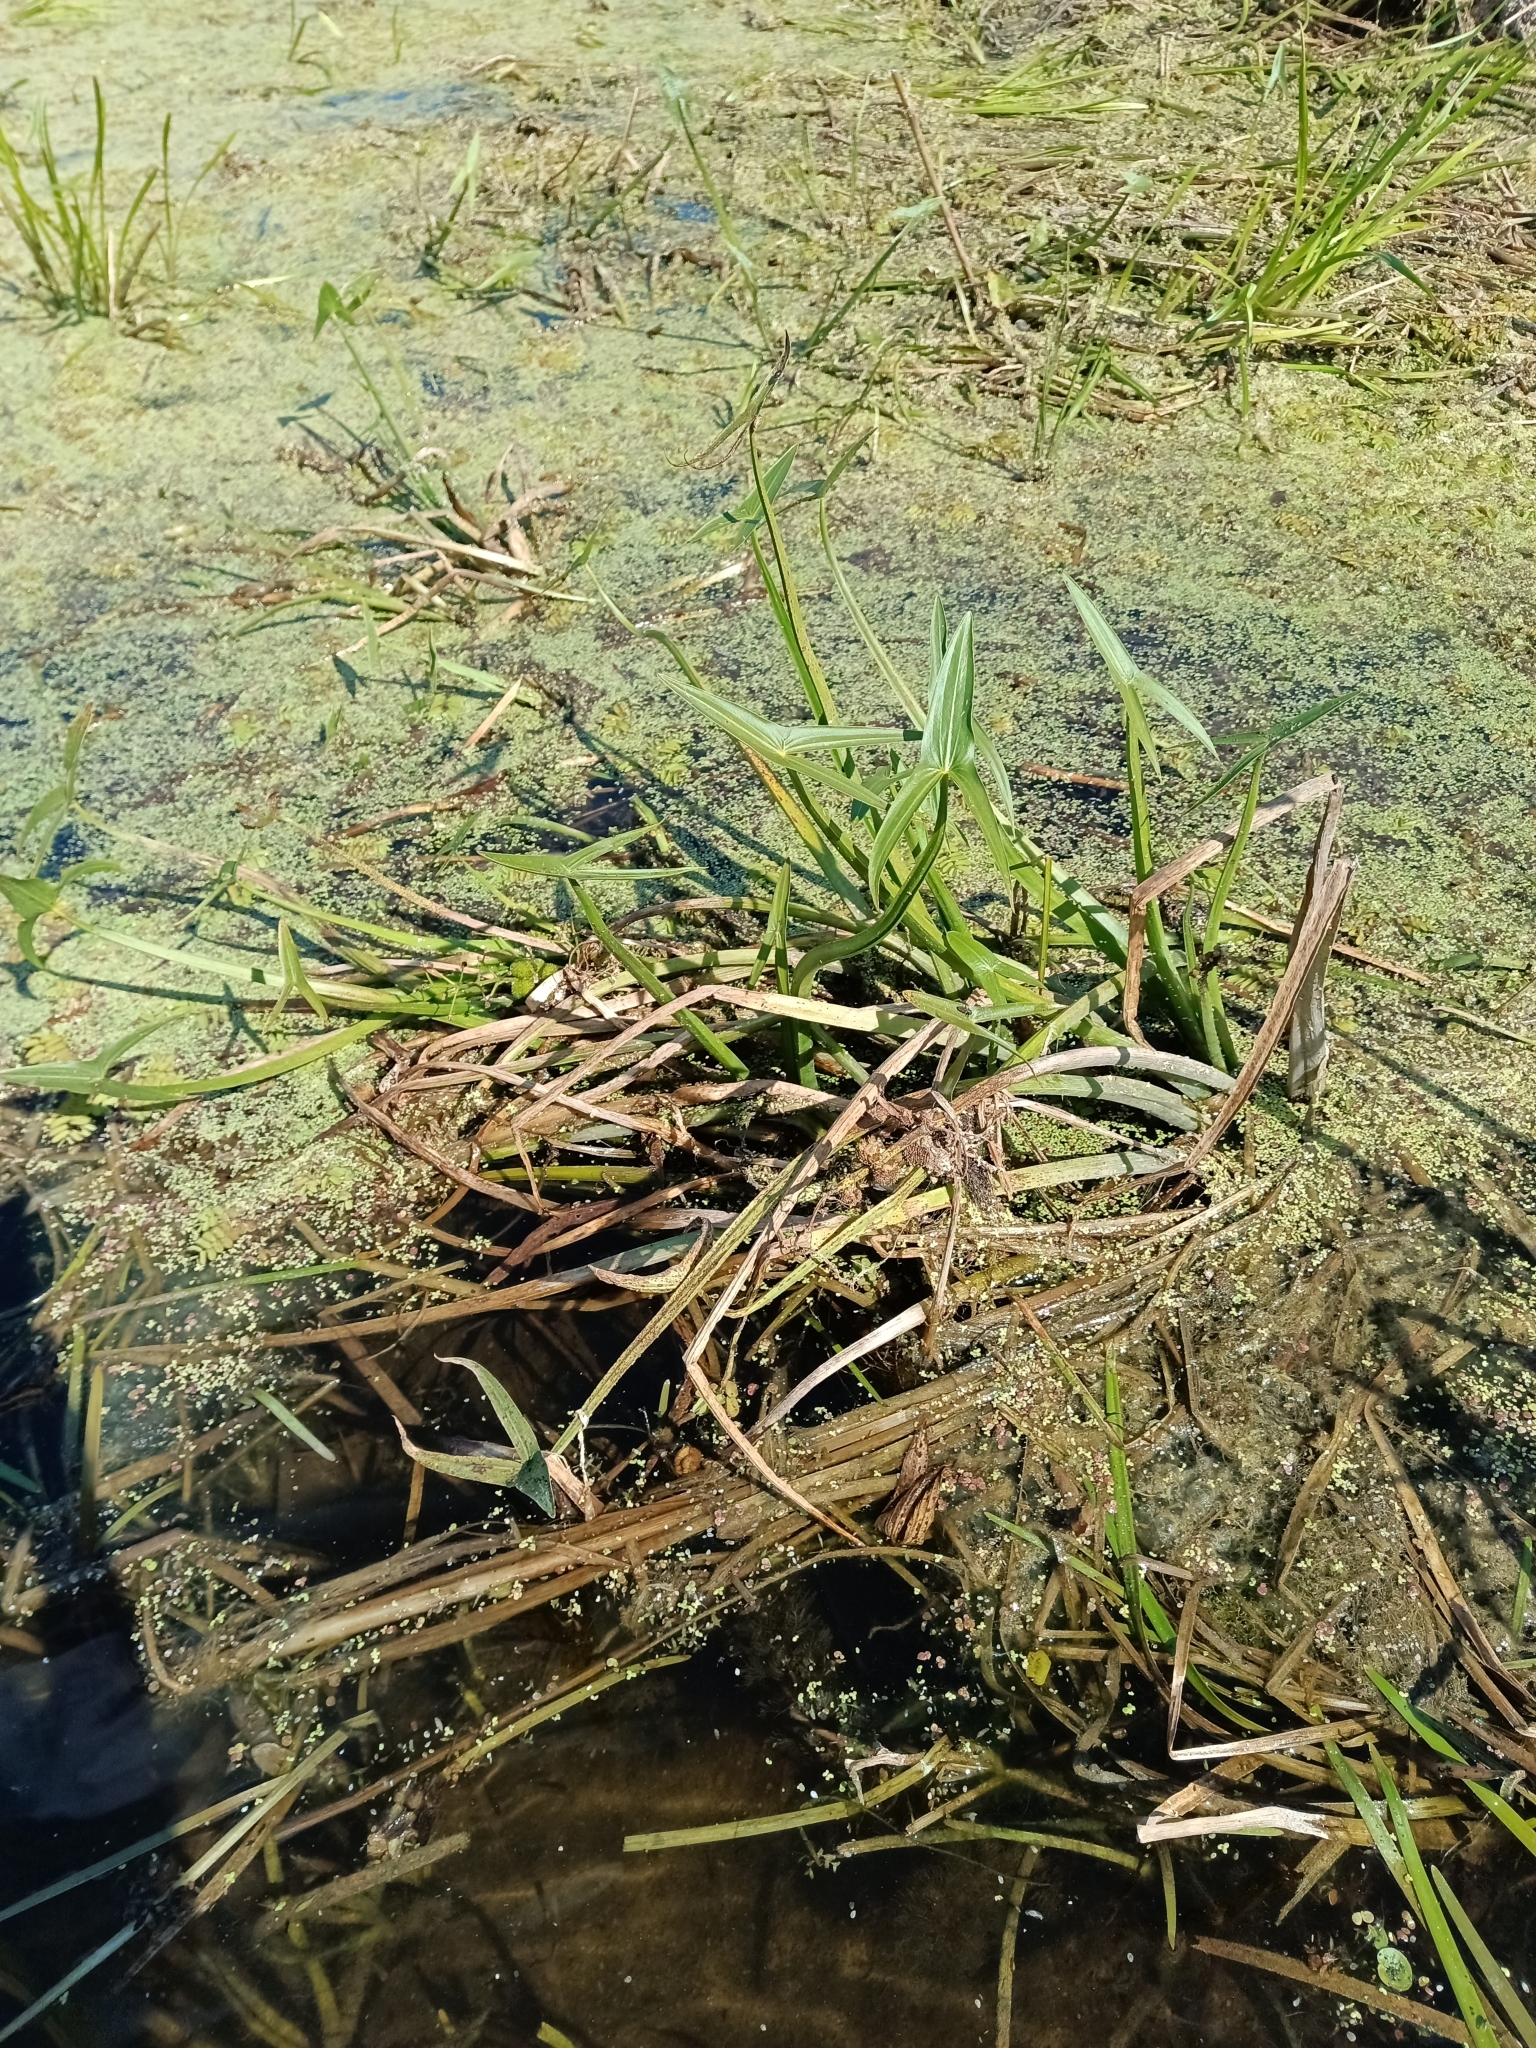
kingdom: Plantae
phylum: Tracheophyta
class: Liliopsida
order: Alismatales
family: Alismataceae
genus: Sagittaria
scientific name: Sagittaria sagittifolia
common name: Arrowhead
